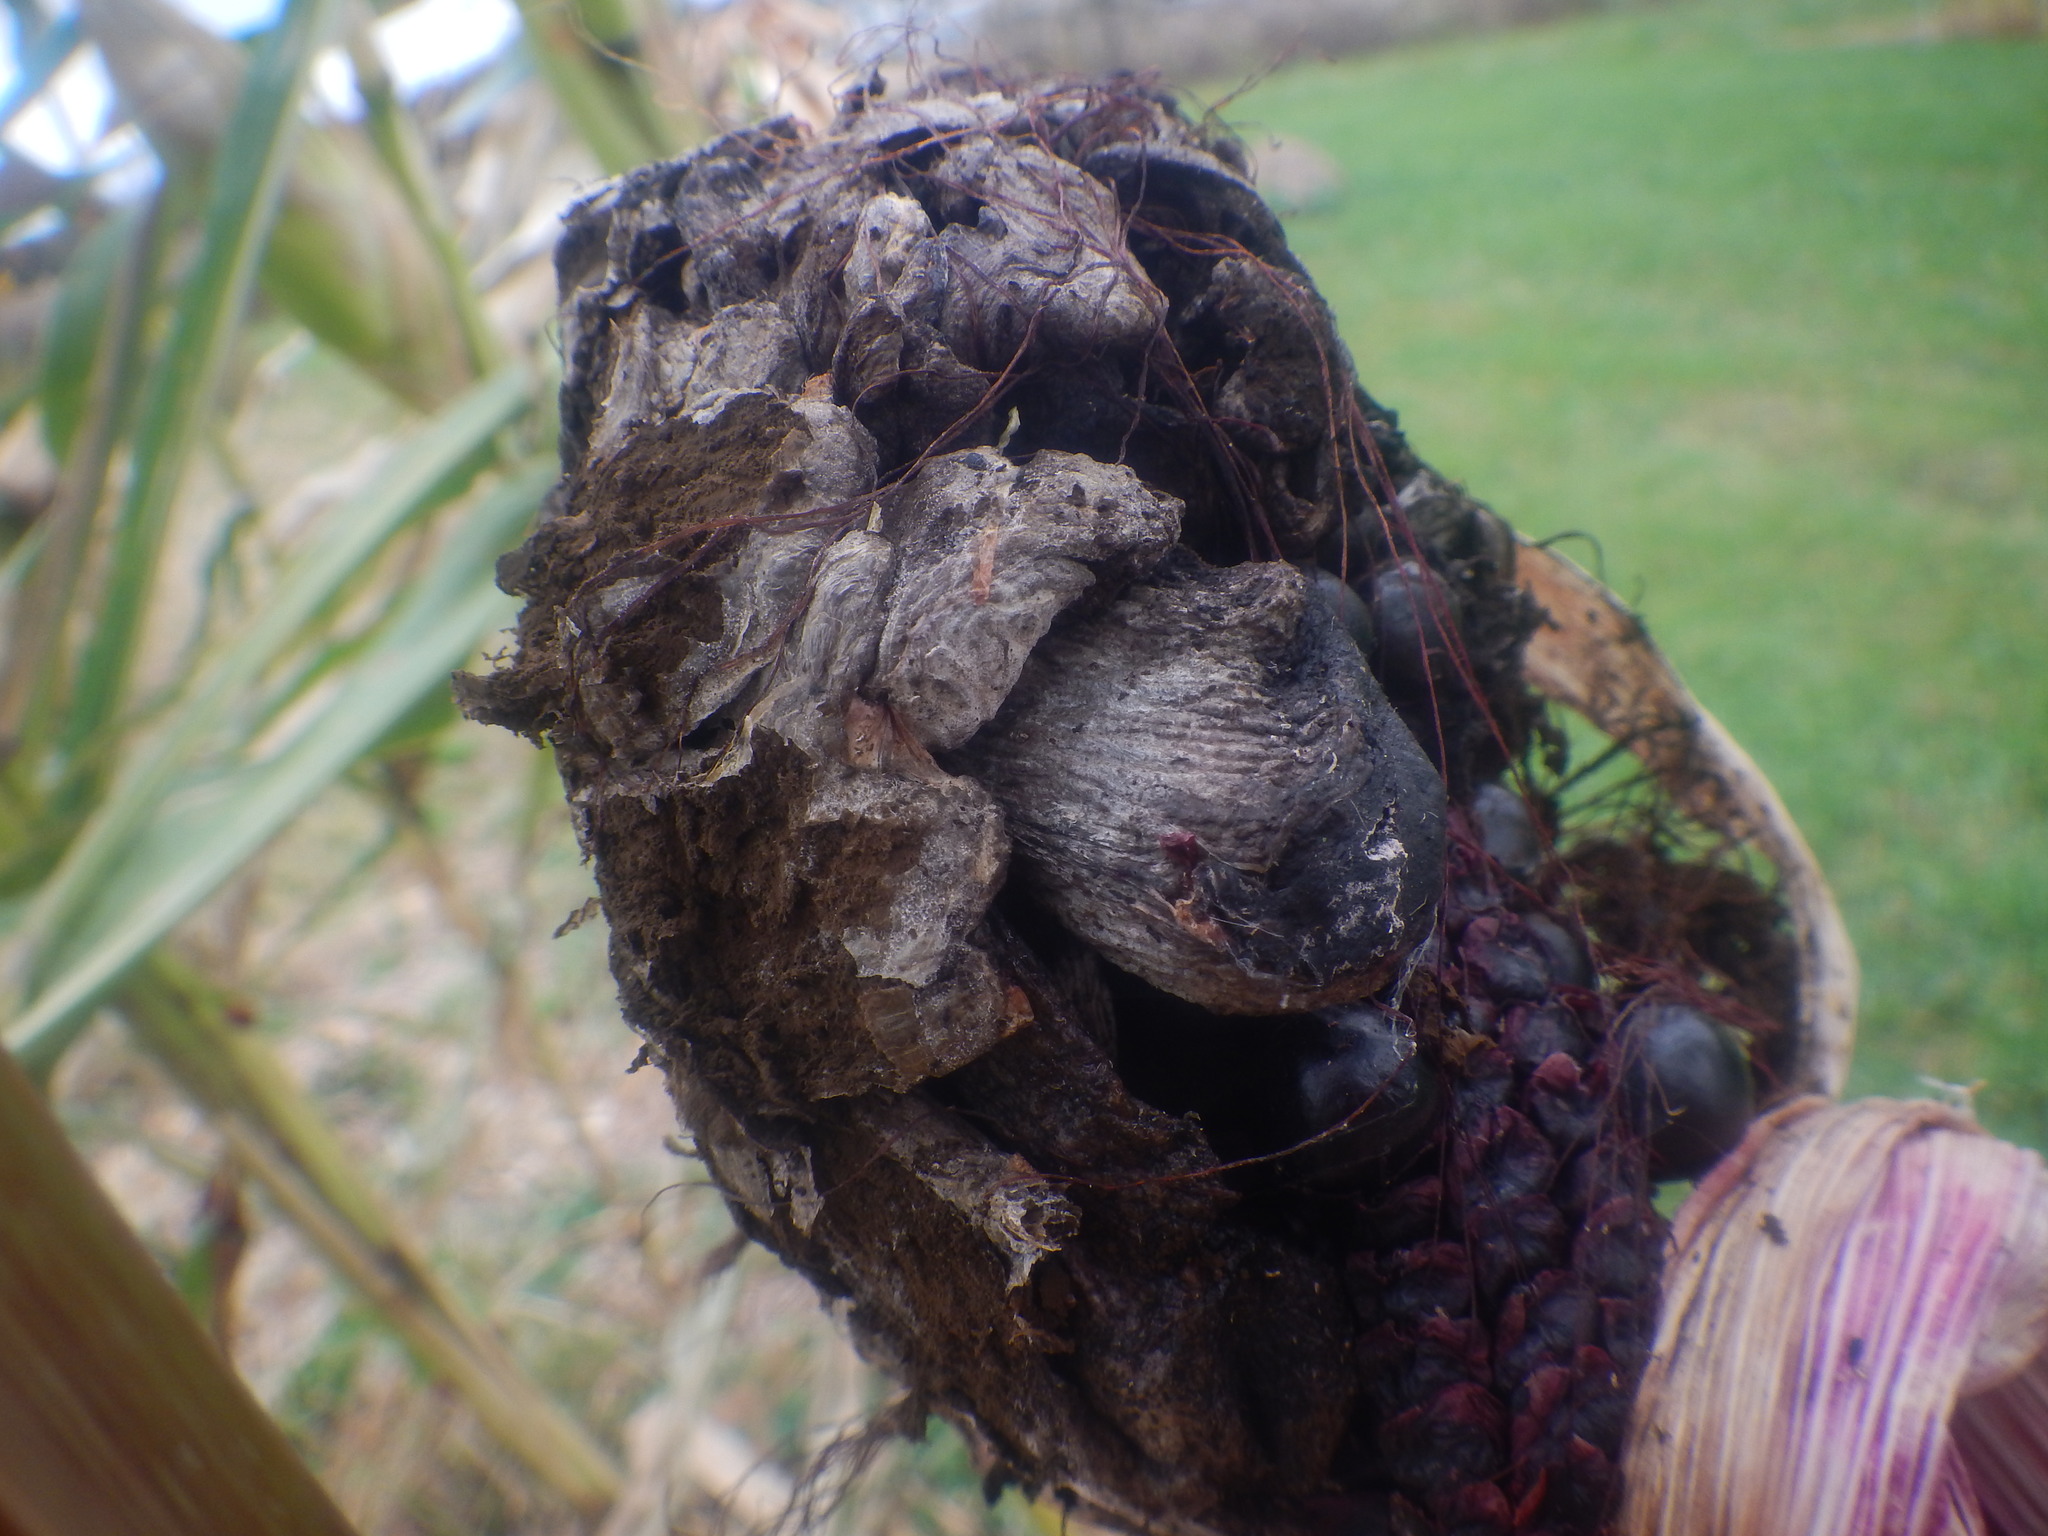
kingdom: Fungi
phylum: Basidiomycota
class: Ustilaginomycetes
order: Ustilaginales
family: Ustilaginaceae
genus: Mycosarcoma
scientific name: Mycosarcoma maydis
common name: Corn smut
